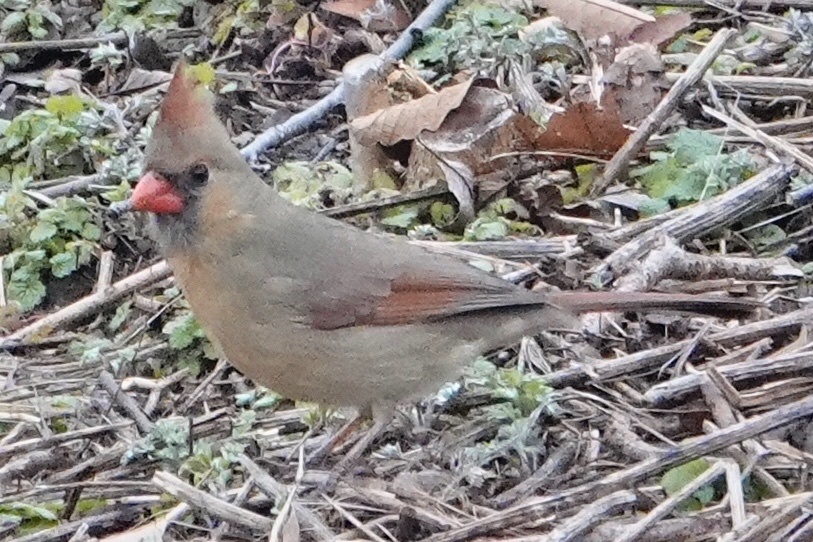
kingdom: Animalia
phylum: Chordata
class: Aves
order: Passeriformes
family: Cardinalidae
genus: Cardinalis
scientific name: Cardinalis cardinalis
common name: Northern cardinal
